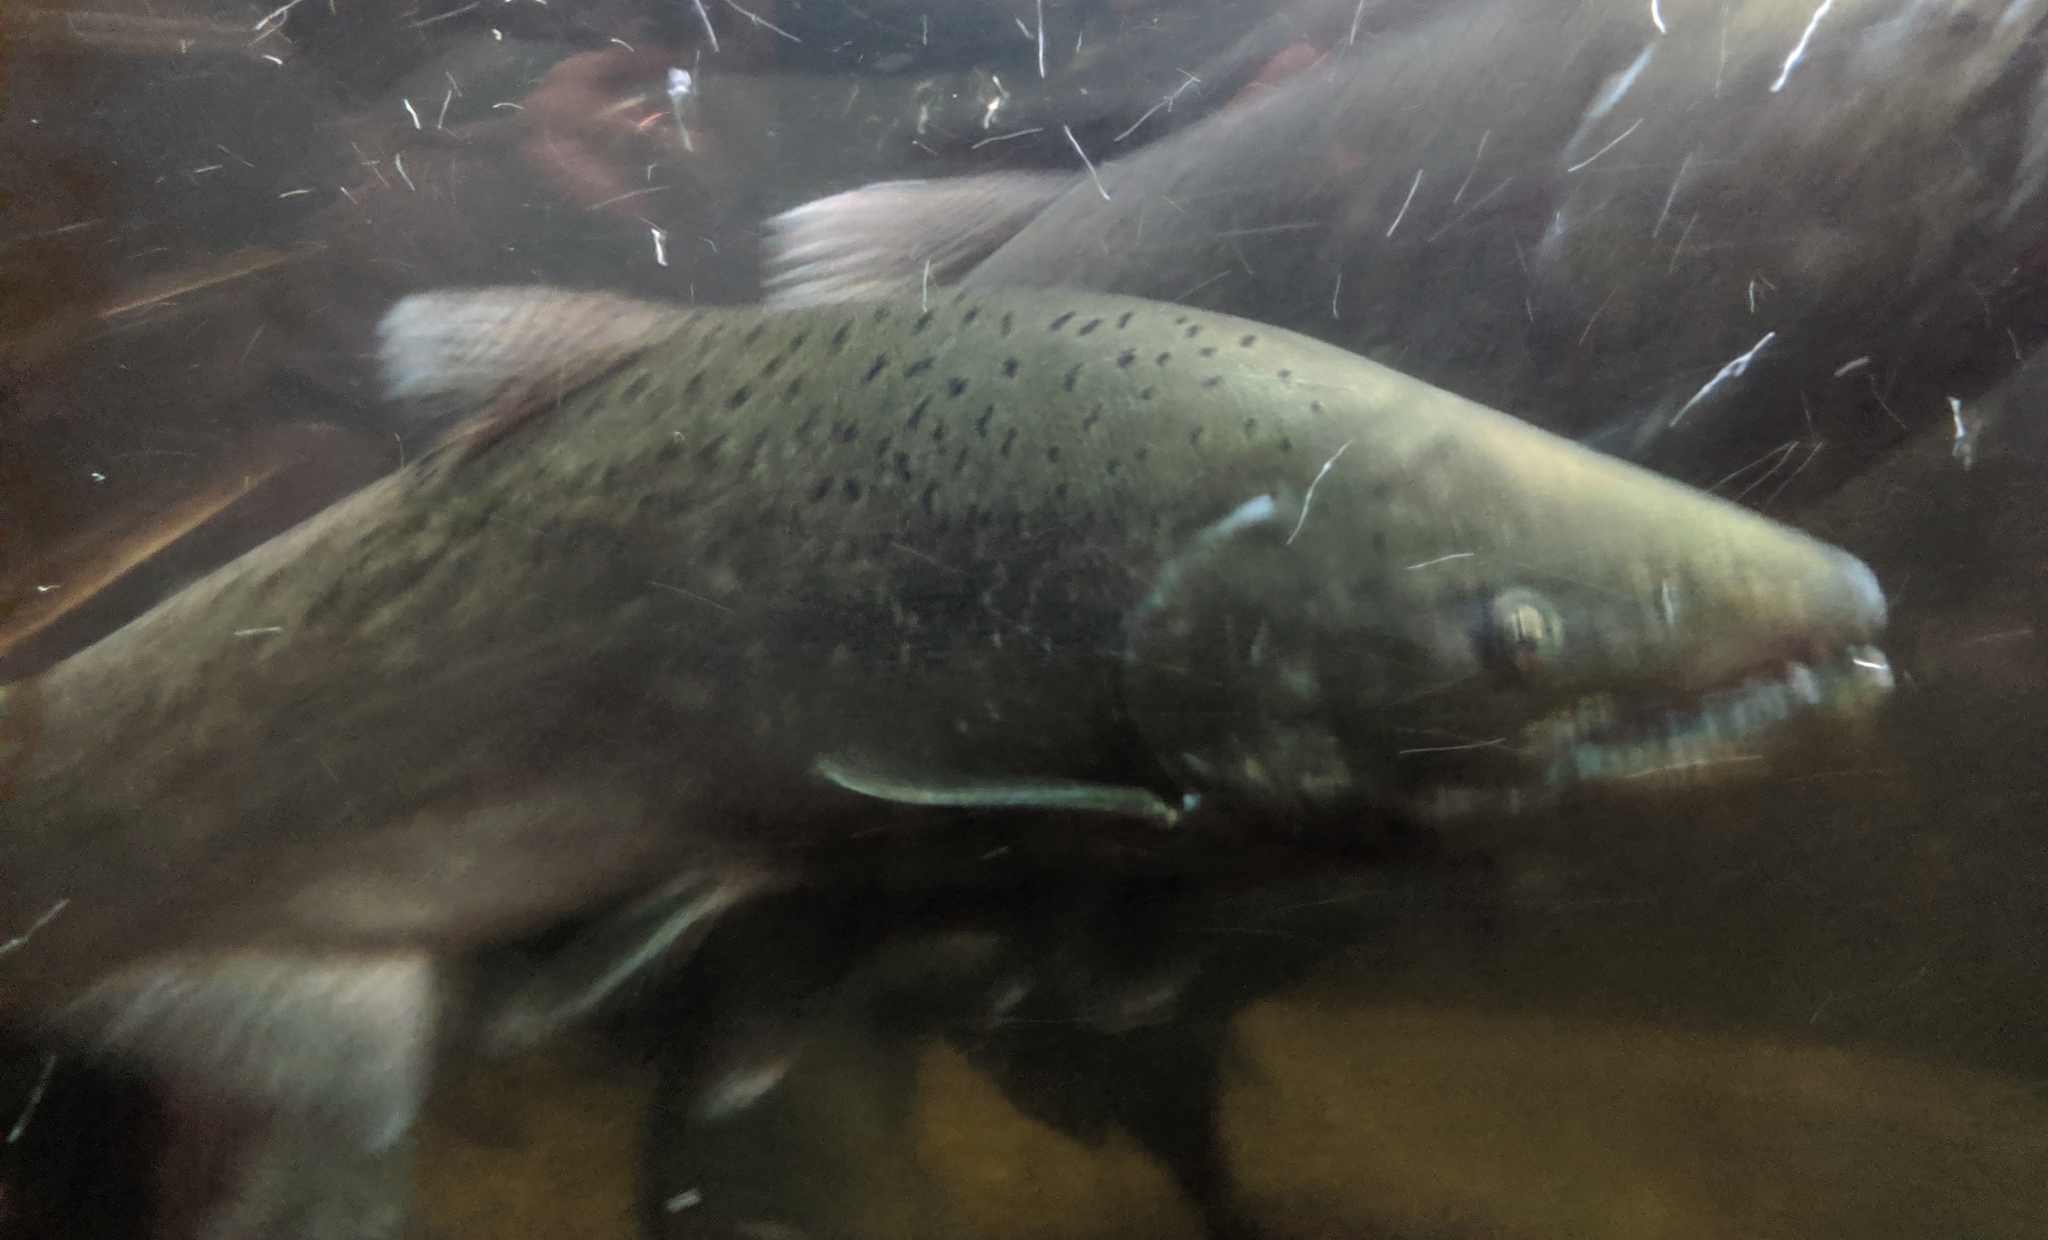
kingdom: Animalia
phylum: Chordata
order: Salmoniformes
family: Salmonidae
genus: Oncorhynchus
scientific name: Oncorhynchus tshawytscha
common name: Chinook salmon
